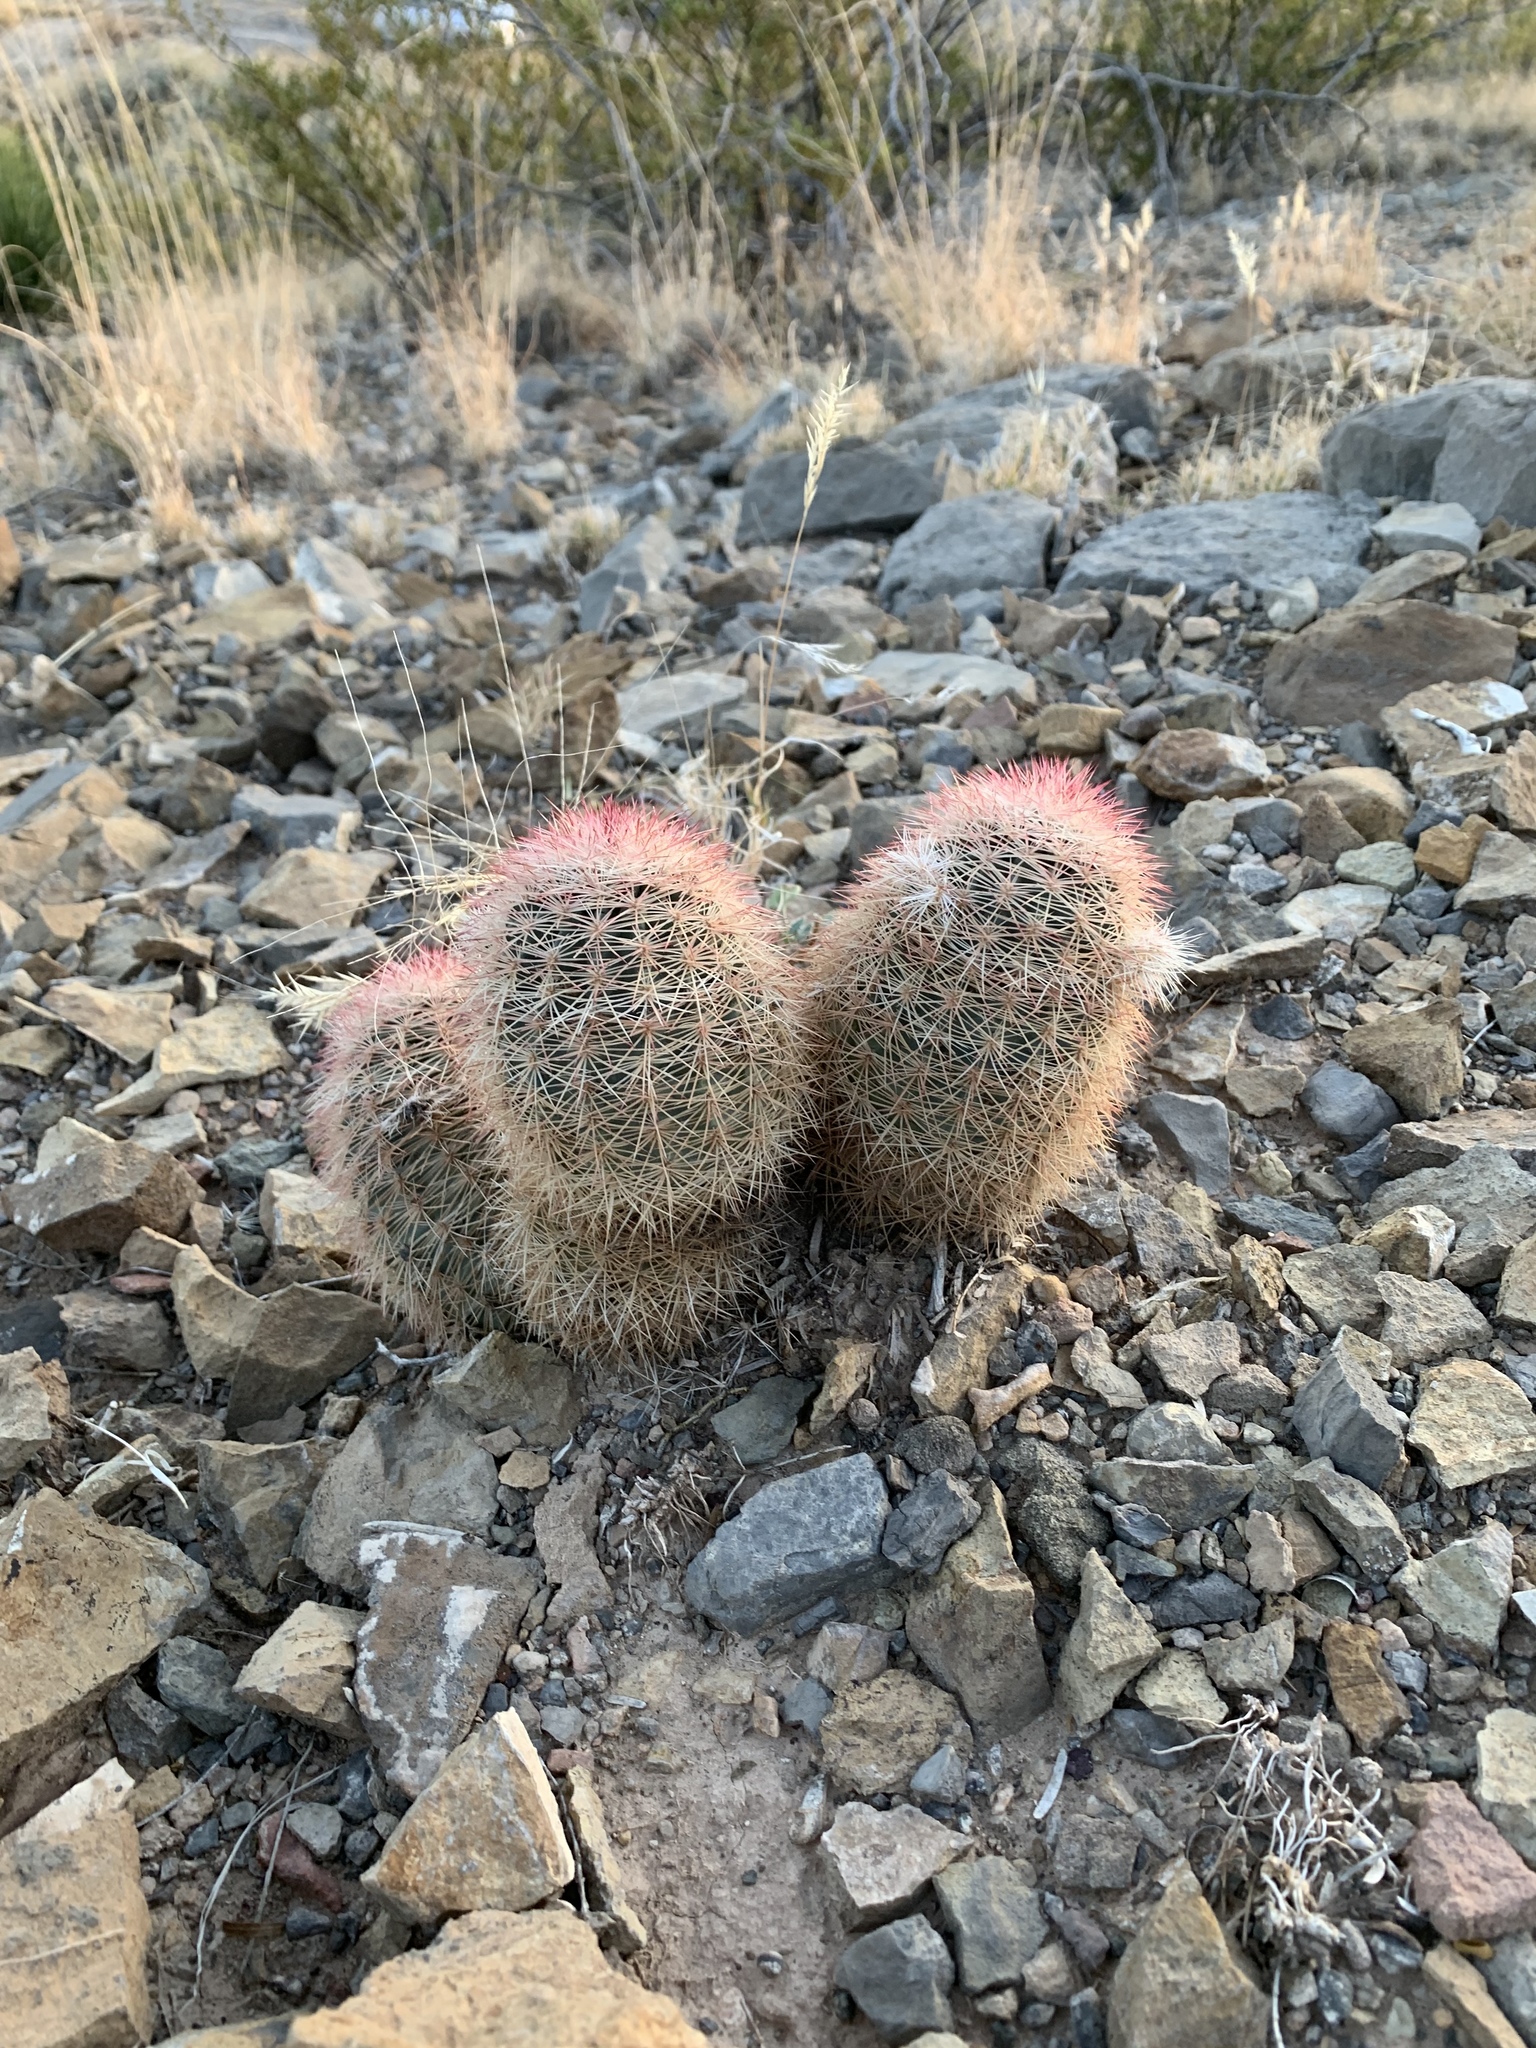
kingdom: Plantae
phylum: Tracheophyta
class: Magnoliopsida
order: Caryophyllales
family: Cactaceae
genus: Echinocereus
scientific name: Echinocereus dasyacanthus
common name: Spiny hedgehog cactus
